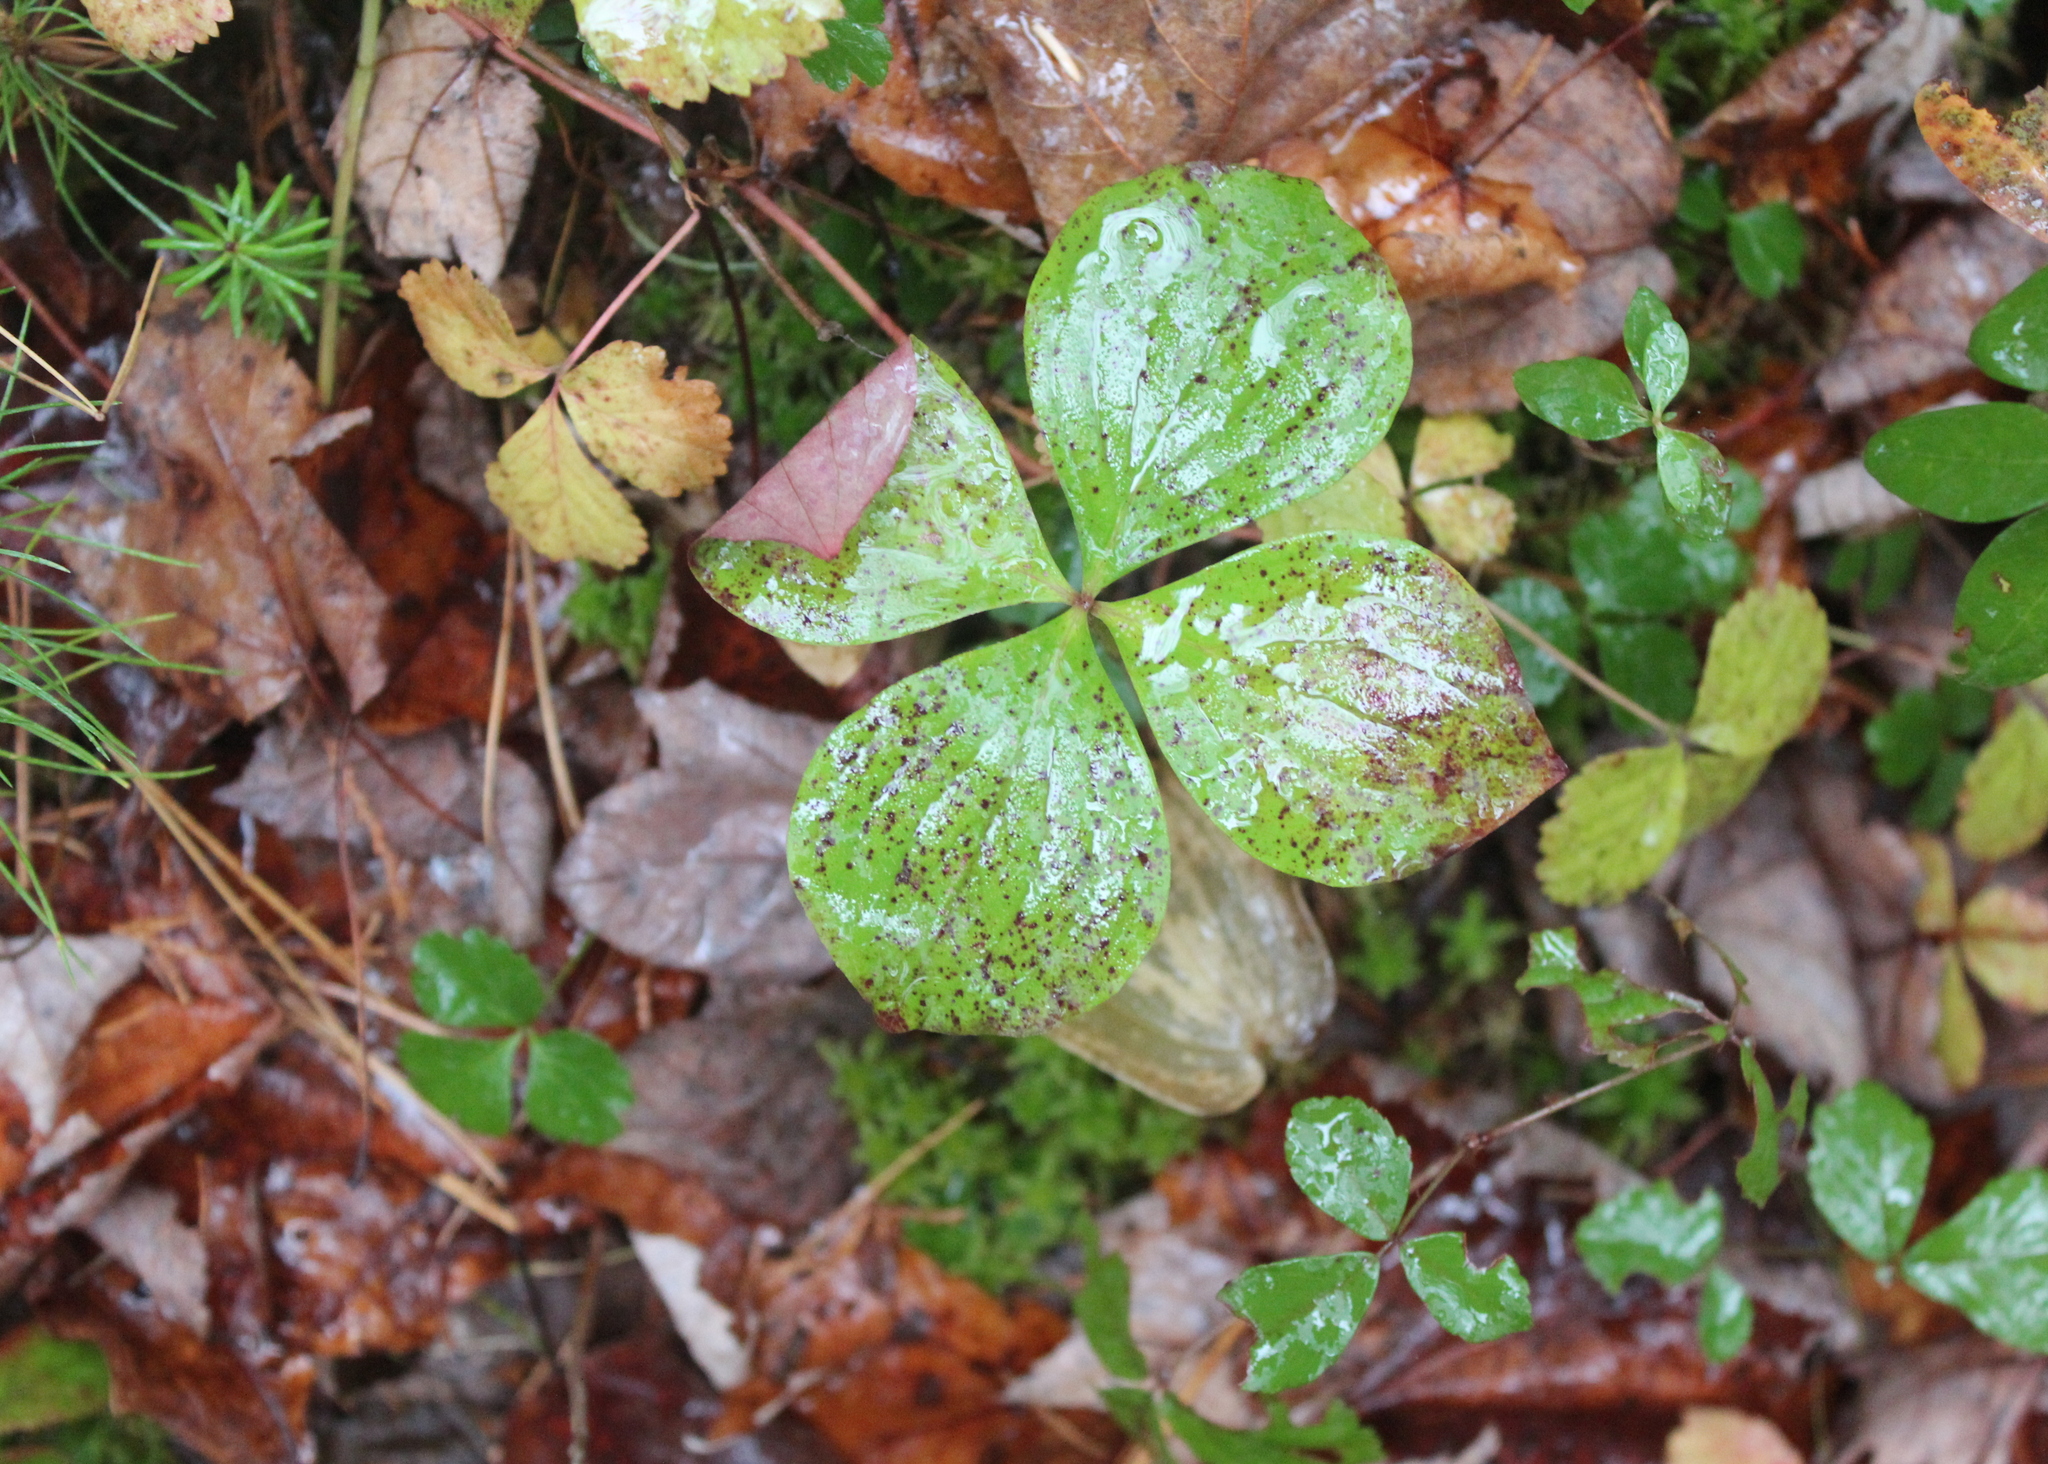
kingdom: Plantae
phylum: Tracheophyta
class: Magnoliopsida
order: Cornales
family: Cornaceae
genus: Cornus
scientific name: Cornus canadensis
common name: Creeping dogwood
